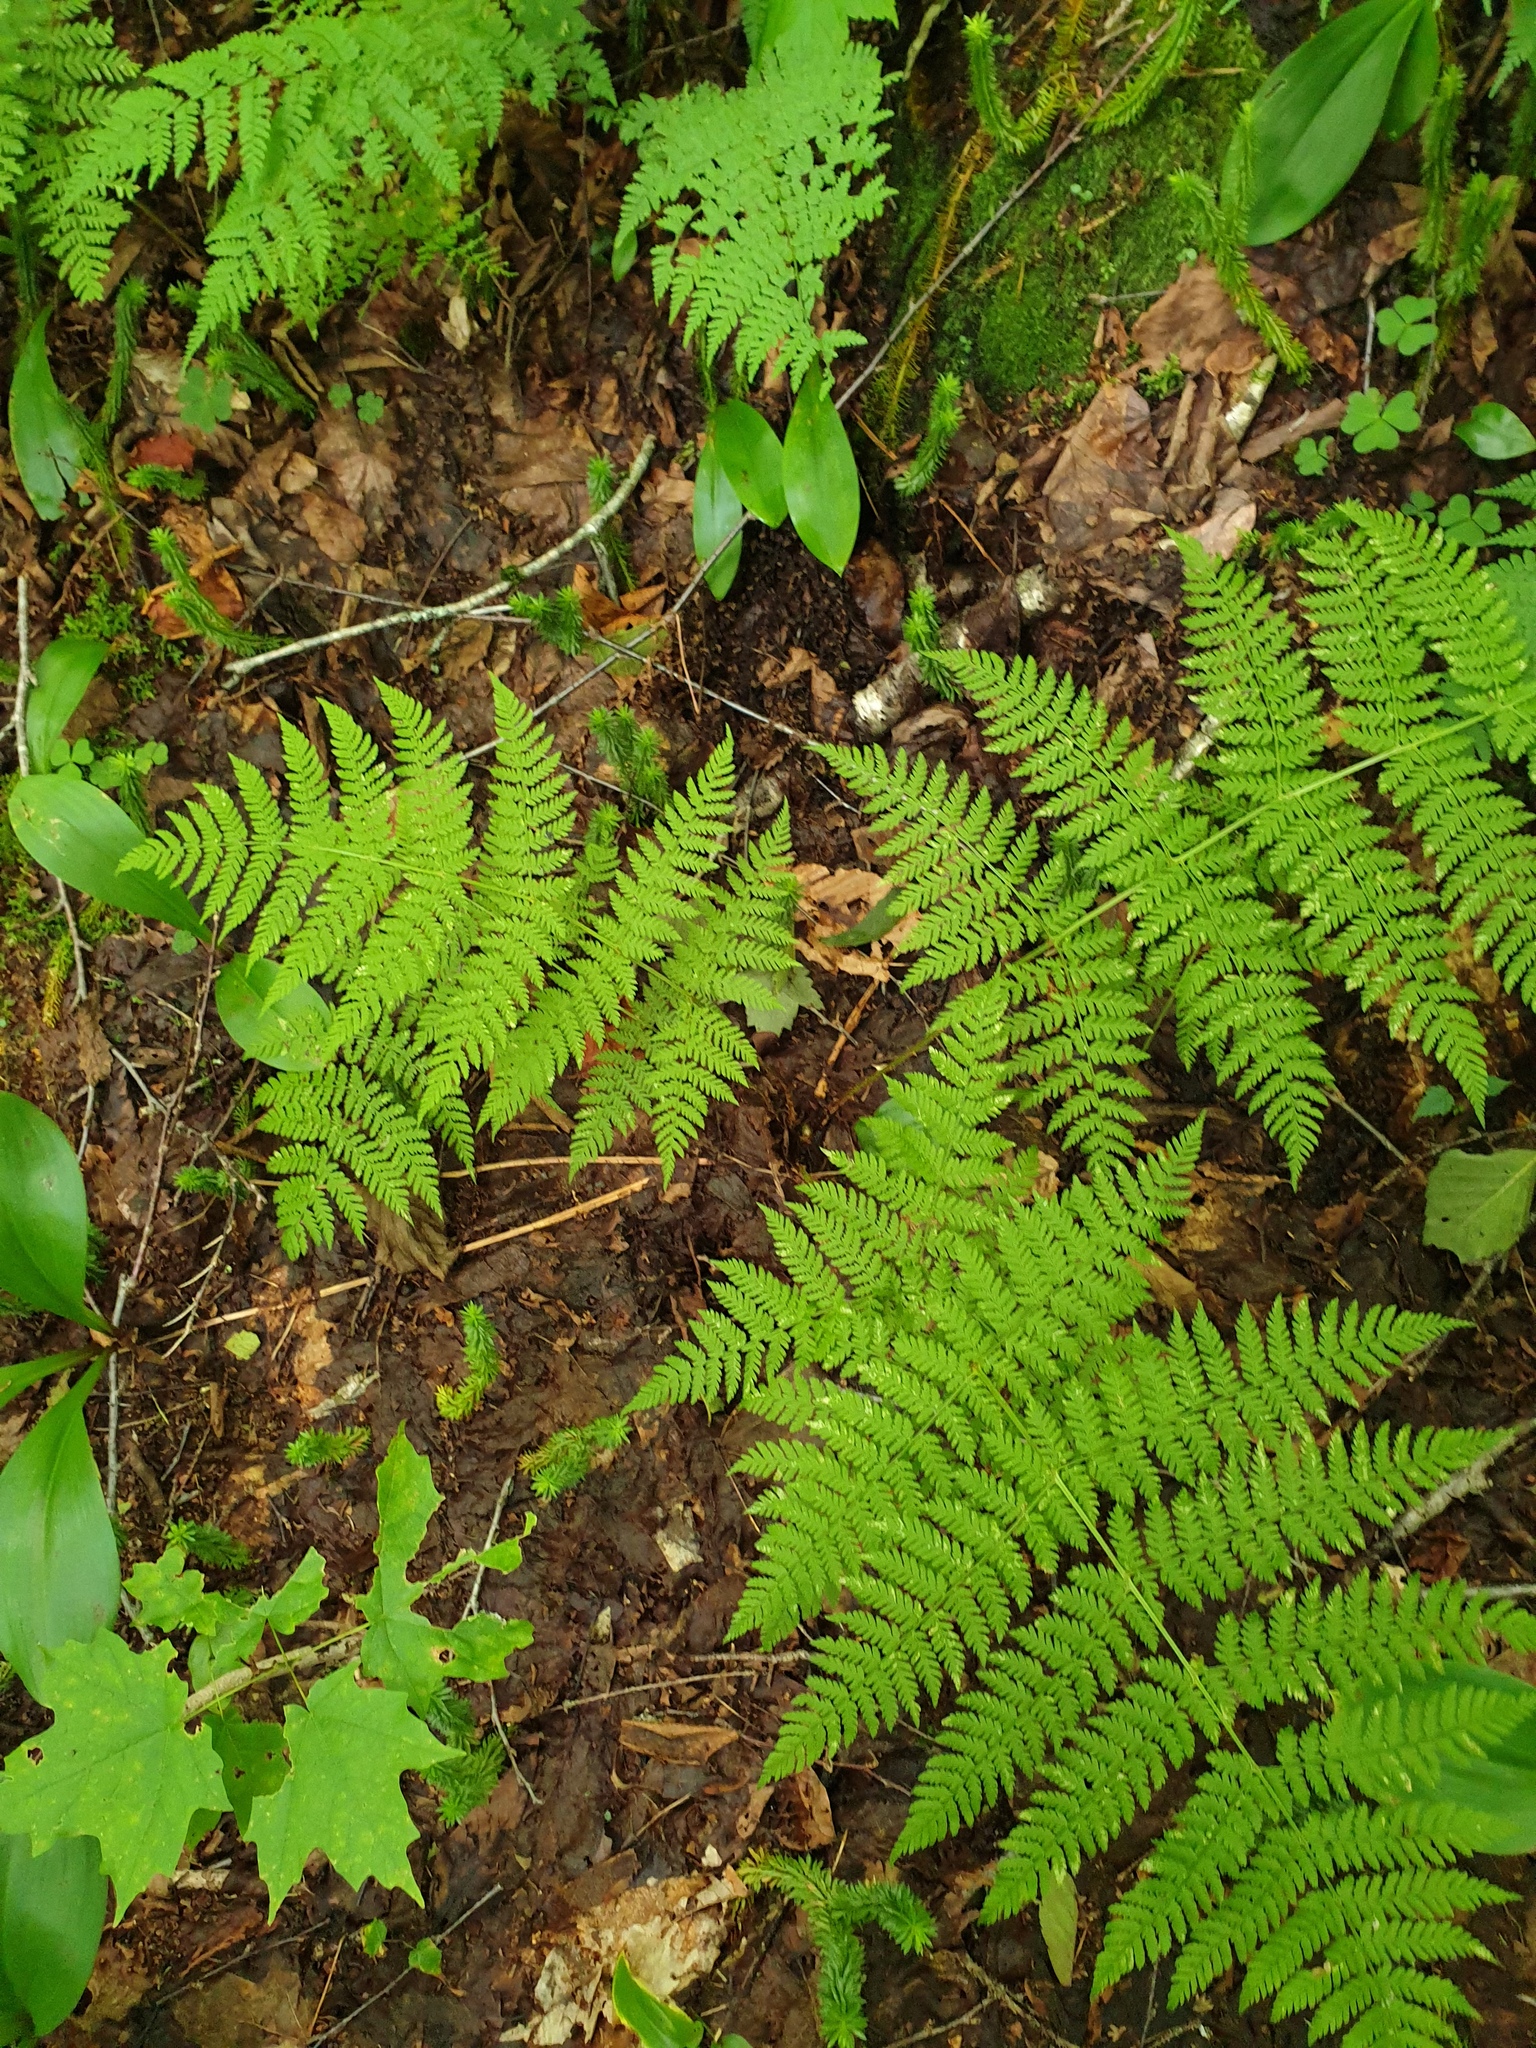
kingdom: Plantae
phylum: Tracheophyta
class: Polypodiopsida
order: Polypodiales
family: Dryopteridaceae
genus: Dryopteris
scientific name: Dryopteris campyloptera
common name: Mountain wood fern
